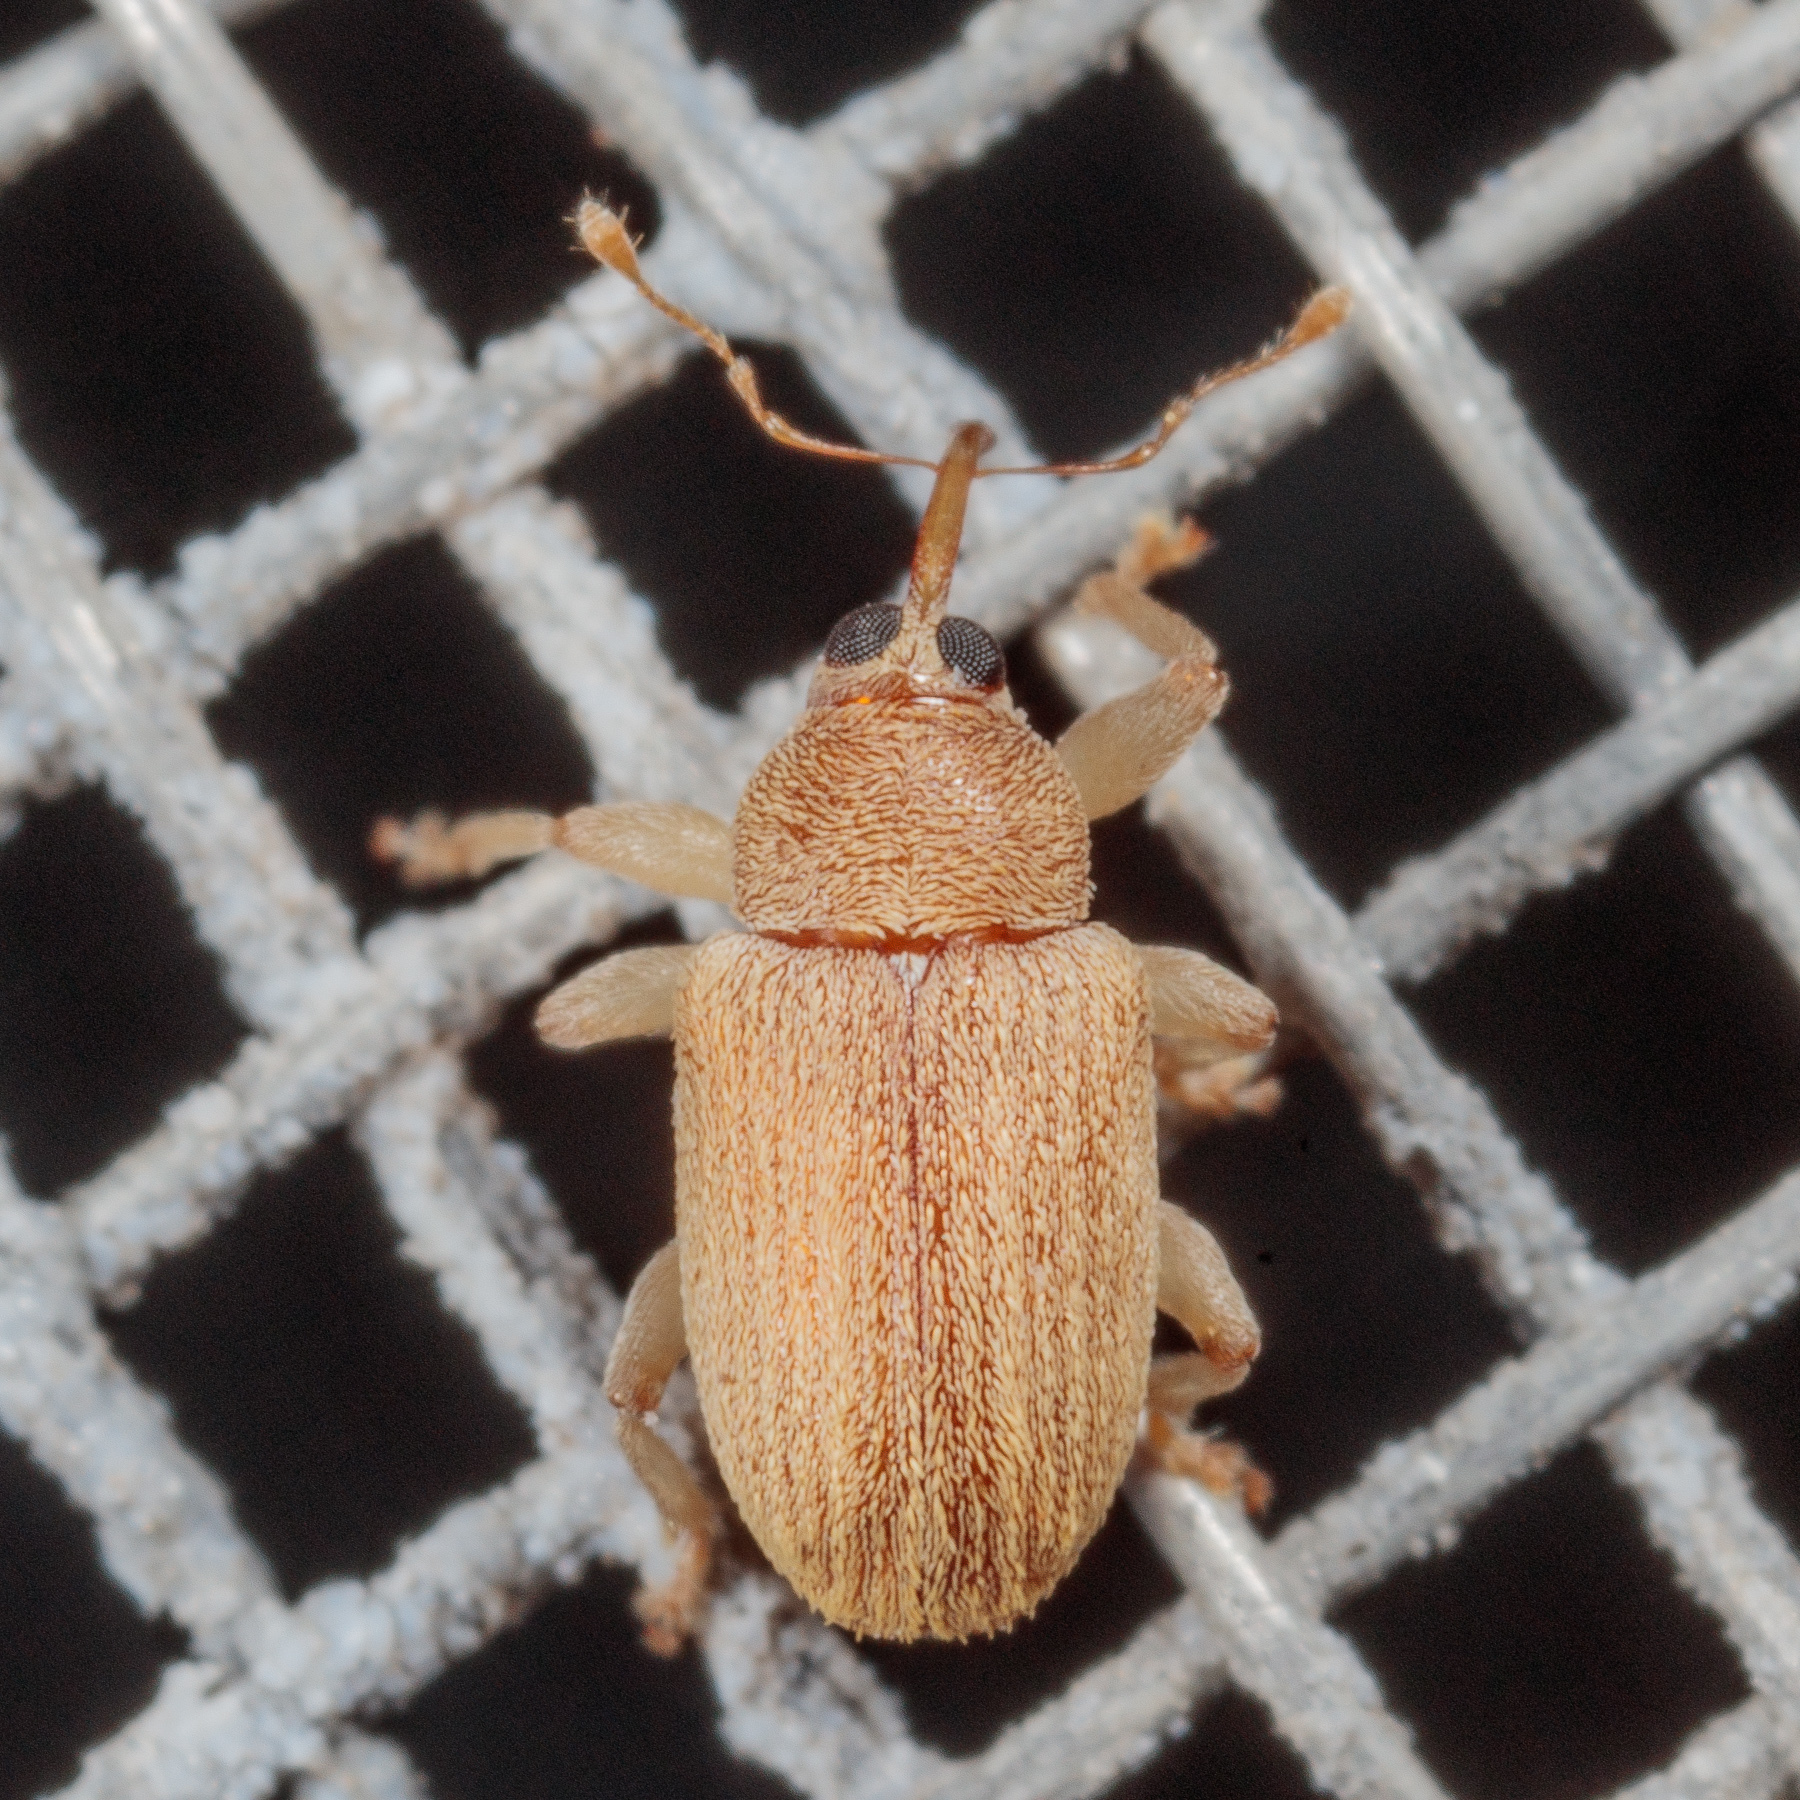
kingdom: Animalia
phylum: Arthropoda
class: Insecta
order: Coleoptera
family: Curculionidae
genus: Lignyodes
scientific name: Lignyodes helvolus
